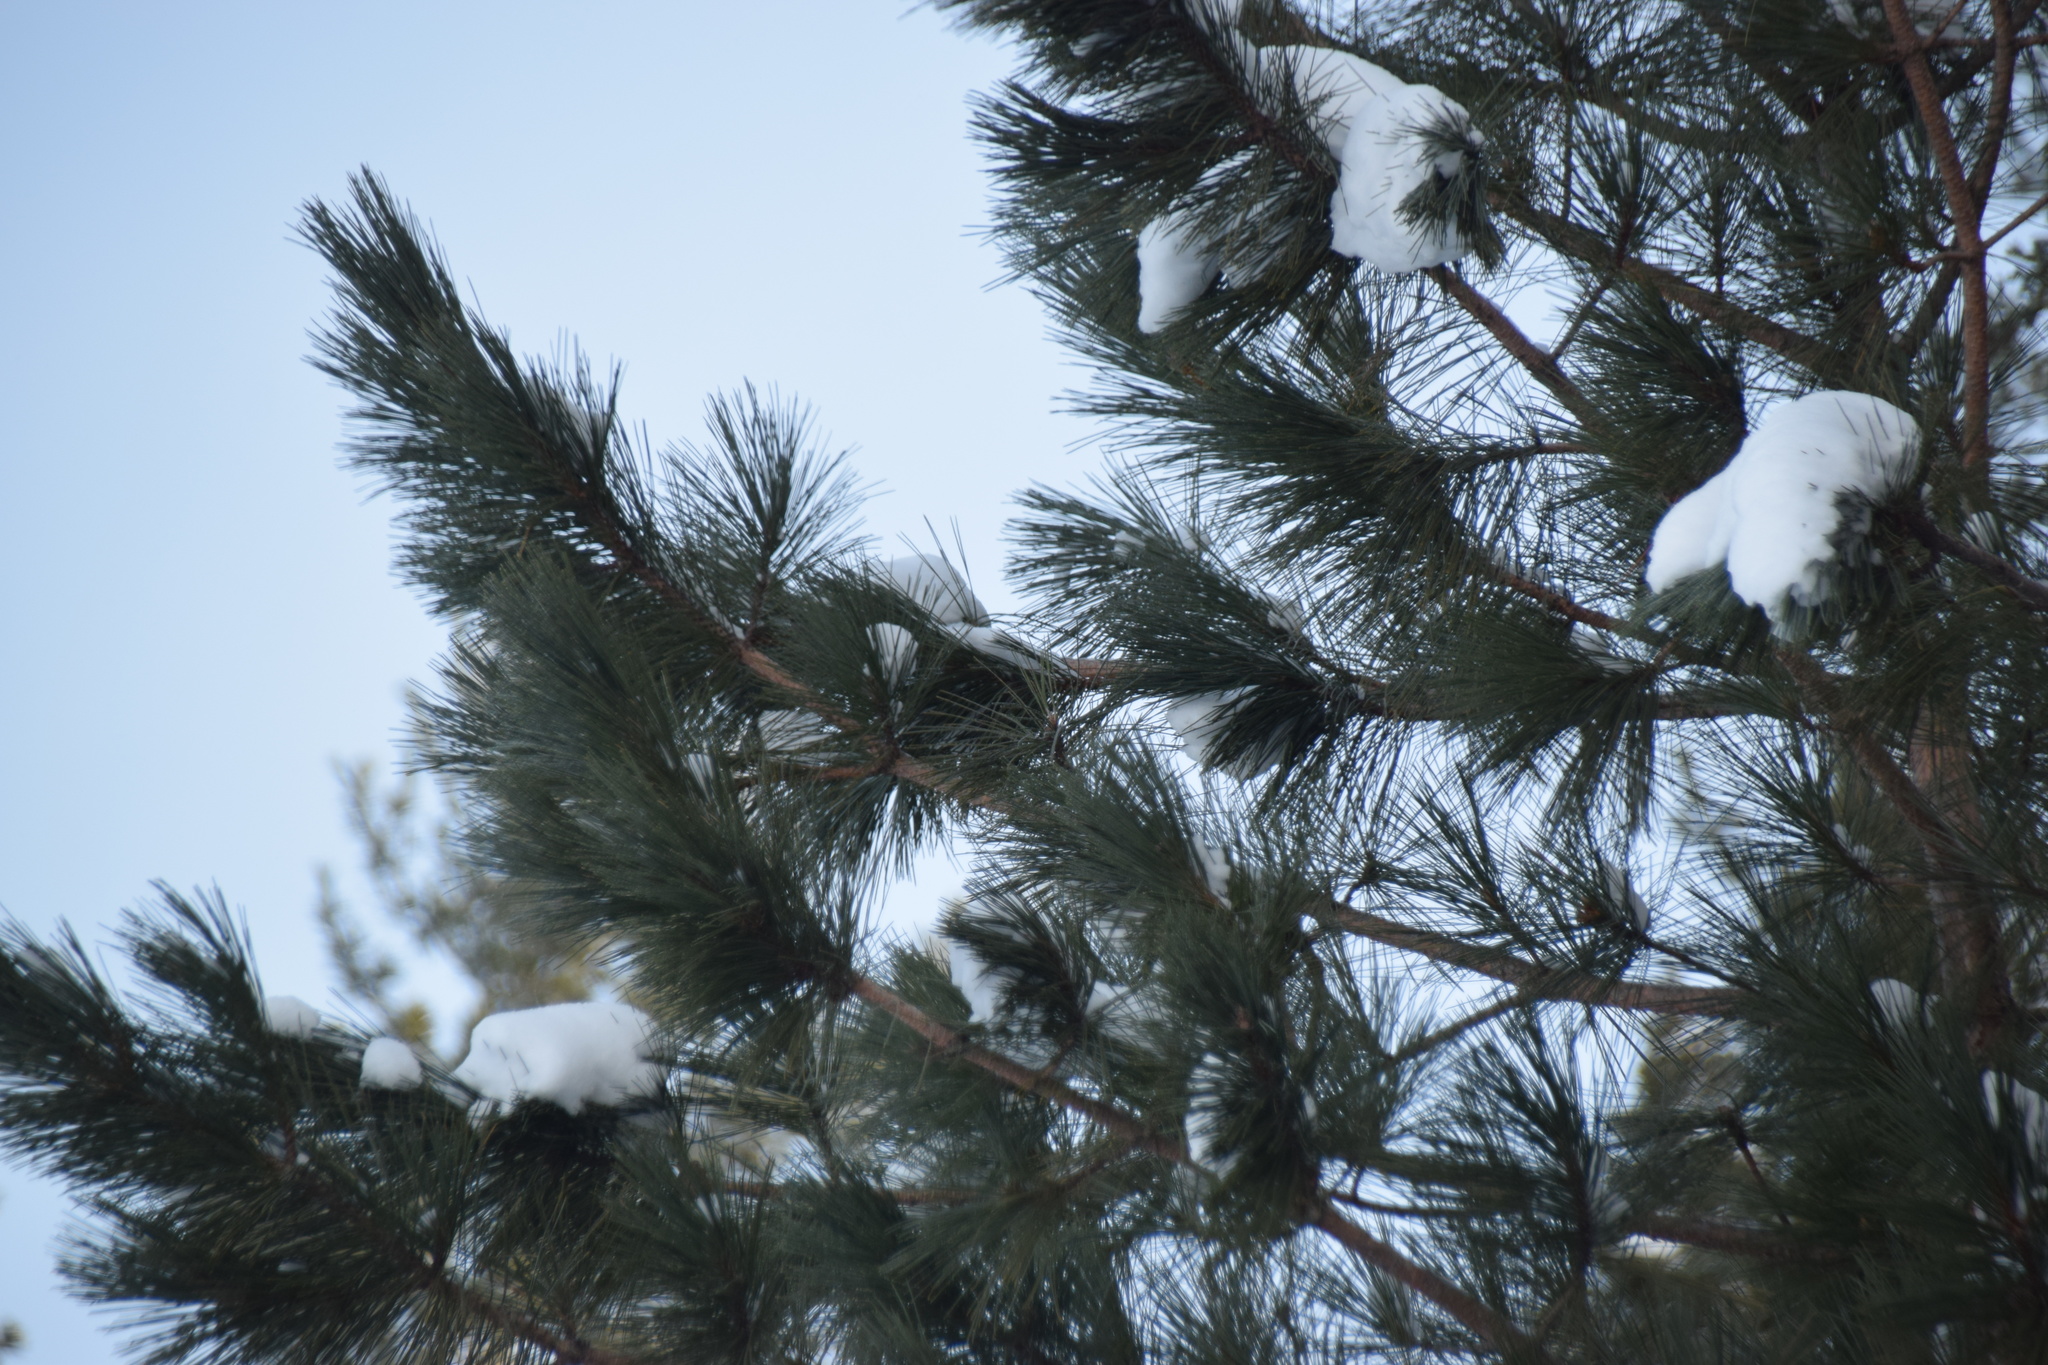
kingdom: Plantae
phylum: Tracheophyta
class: Pinopsida
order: Pinales
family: Pinaceae
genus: Pinus
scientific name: Pinus resinosa
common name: Norway pine
